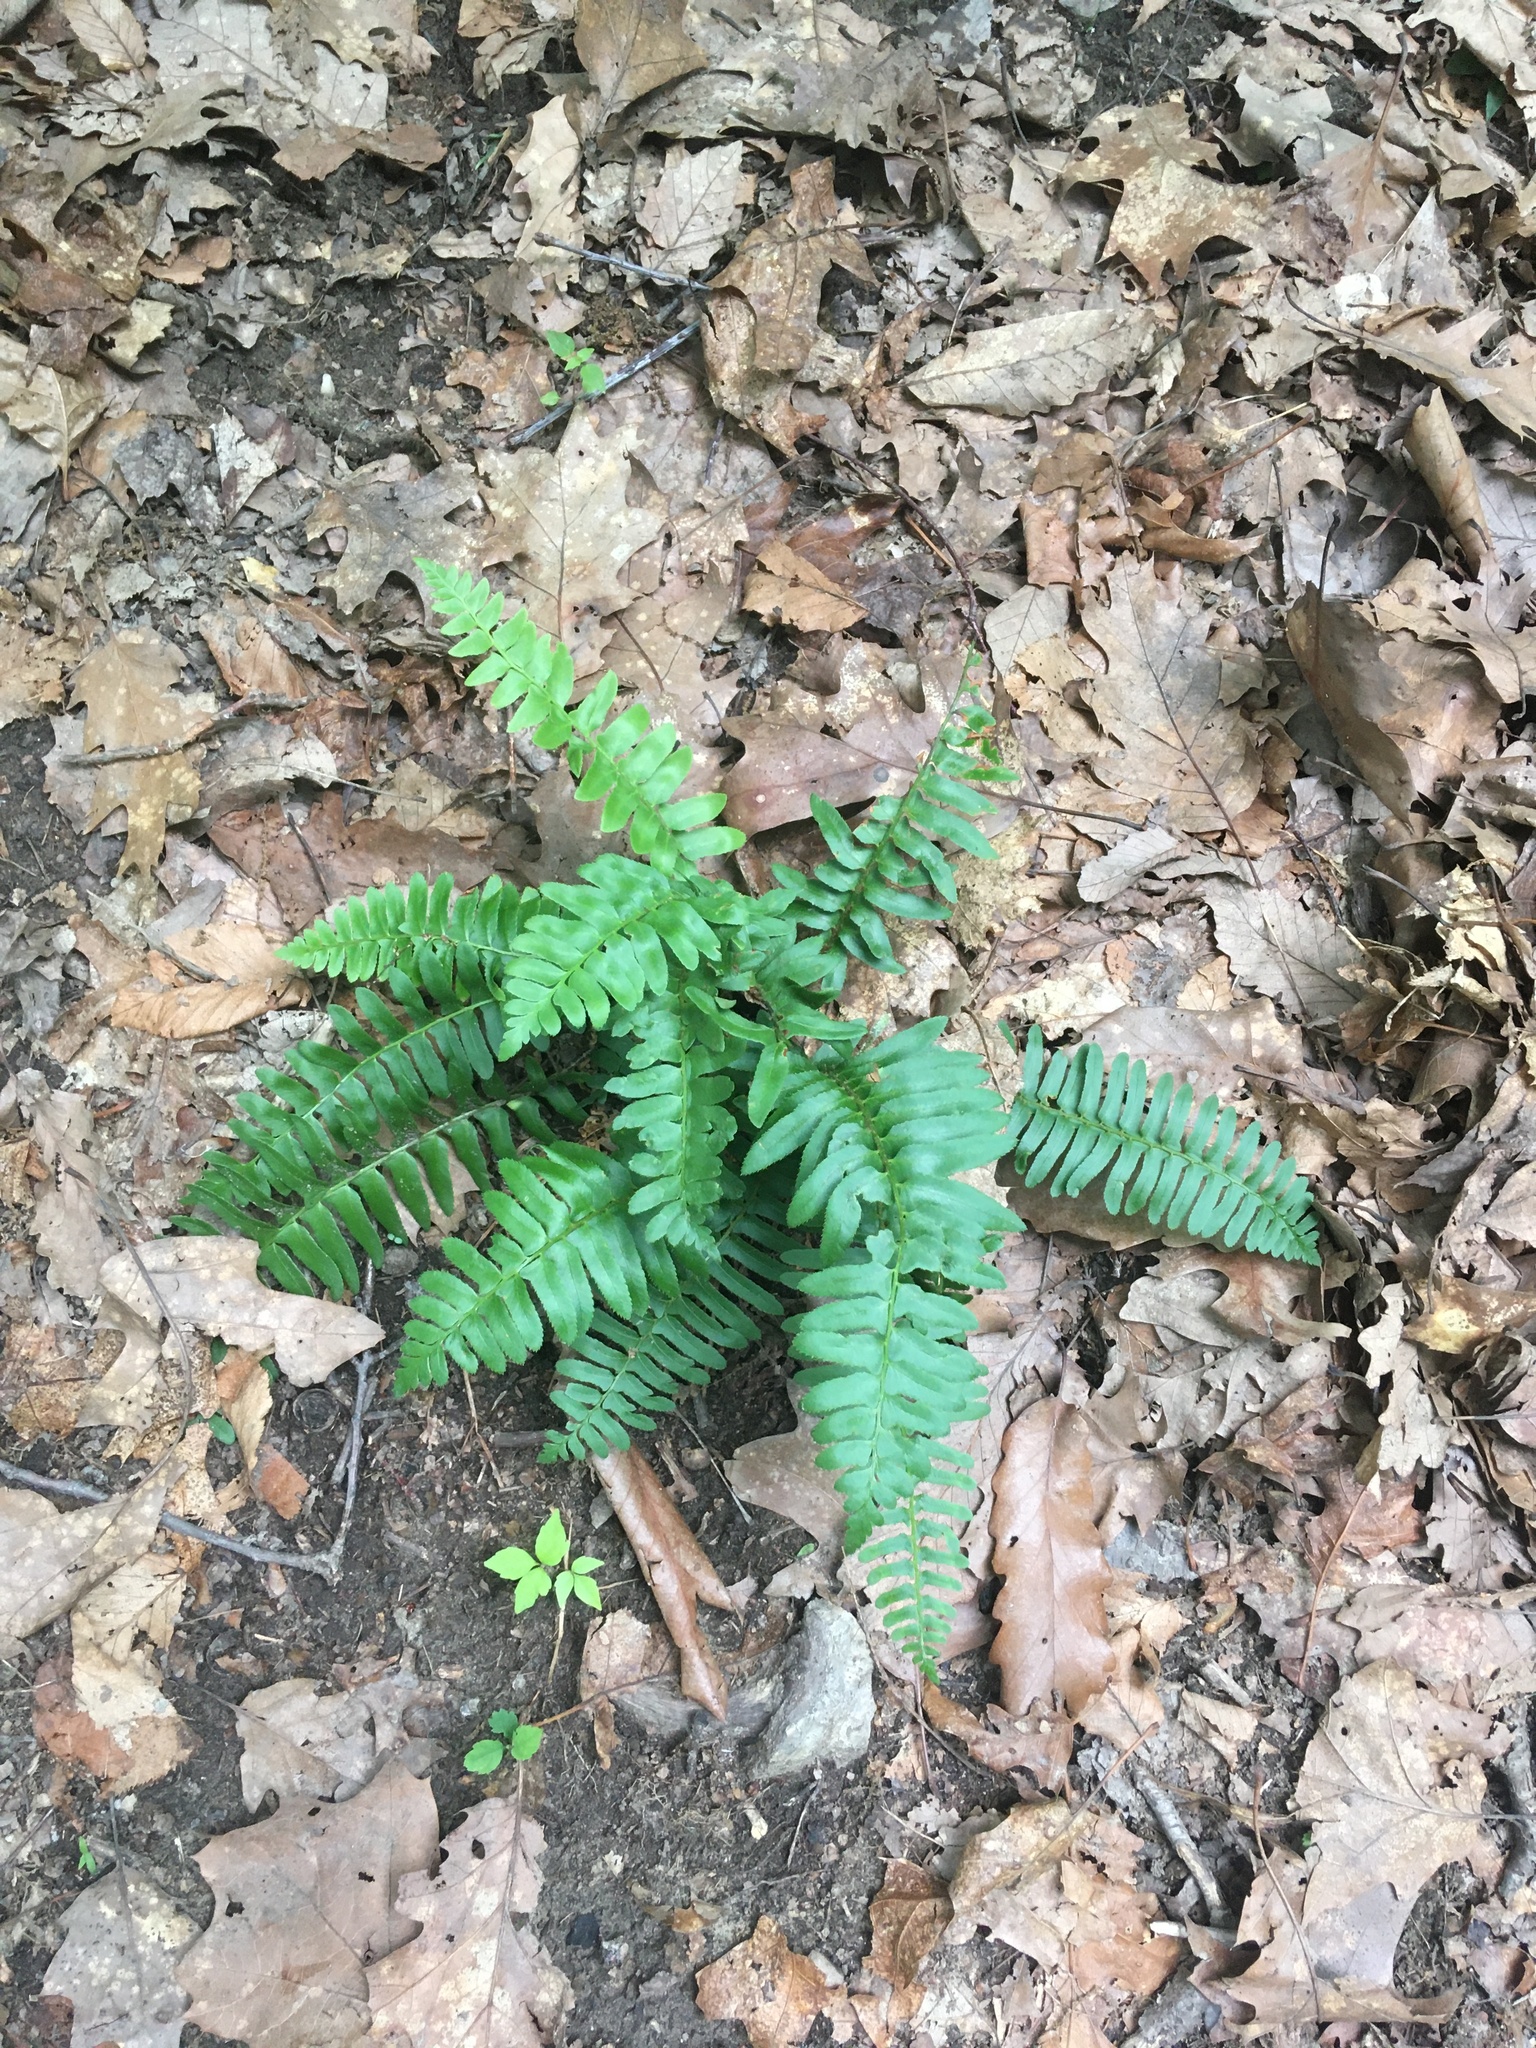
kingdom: Plantae
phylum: Tracheophyta
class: Polypodiopsida
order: Polypodiales
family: Dryopteridaceae
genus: Polystichum
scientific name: Polystichum acrostichoides
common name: Christmas fern
